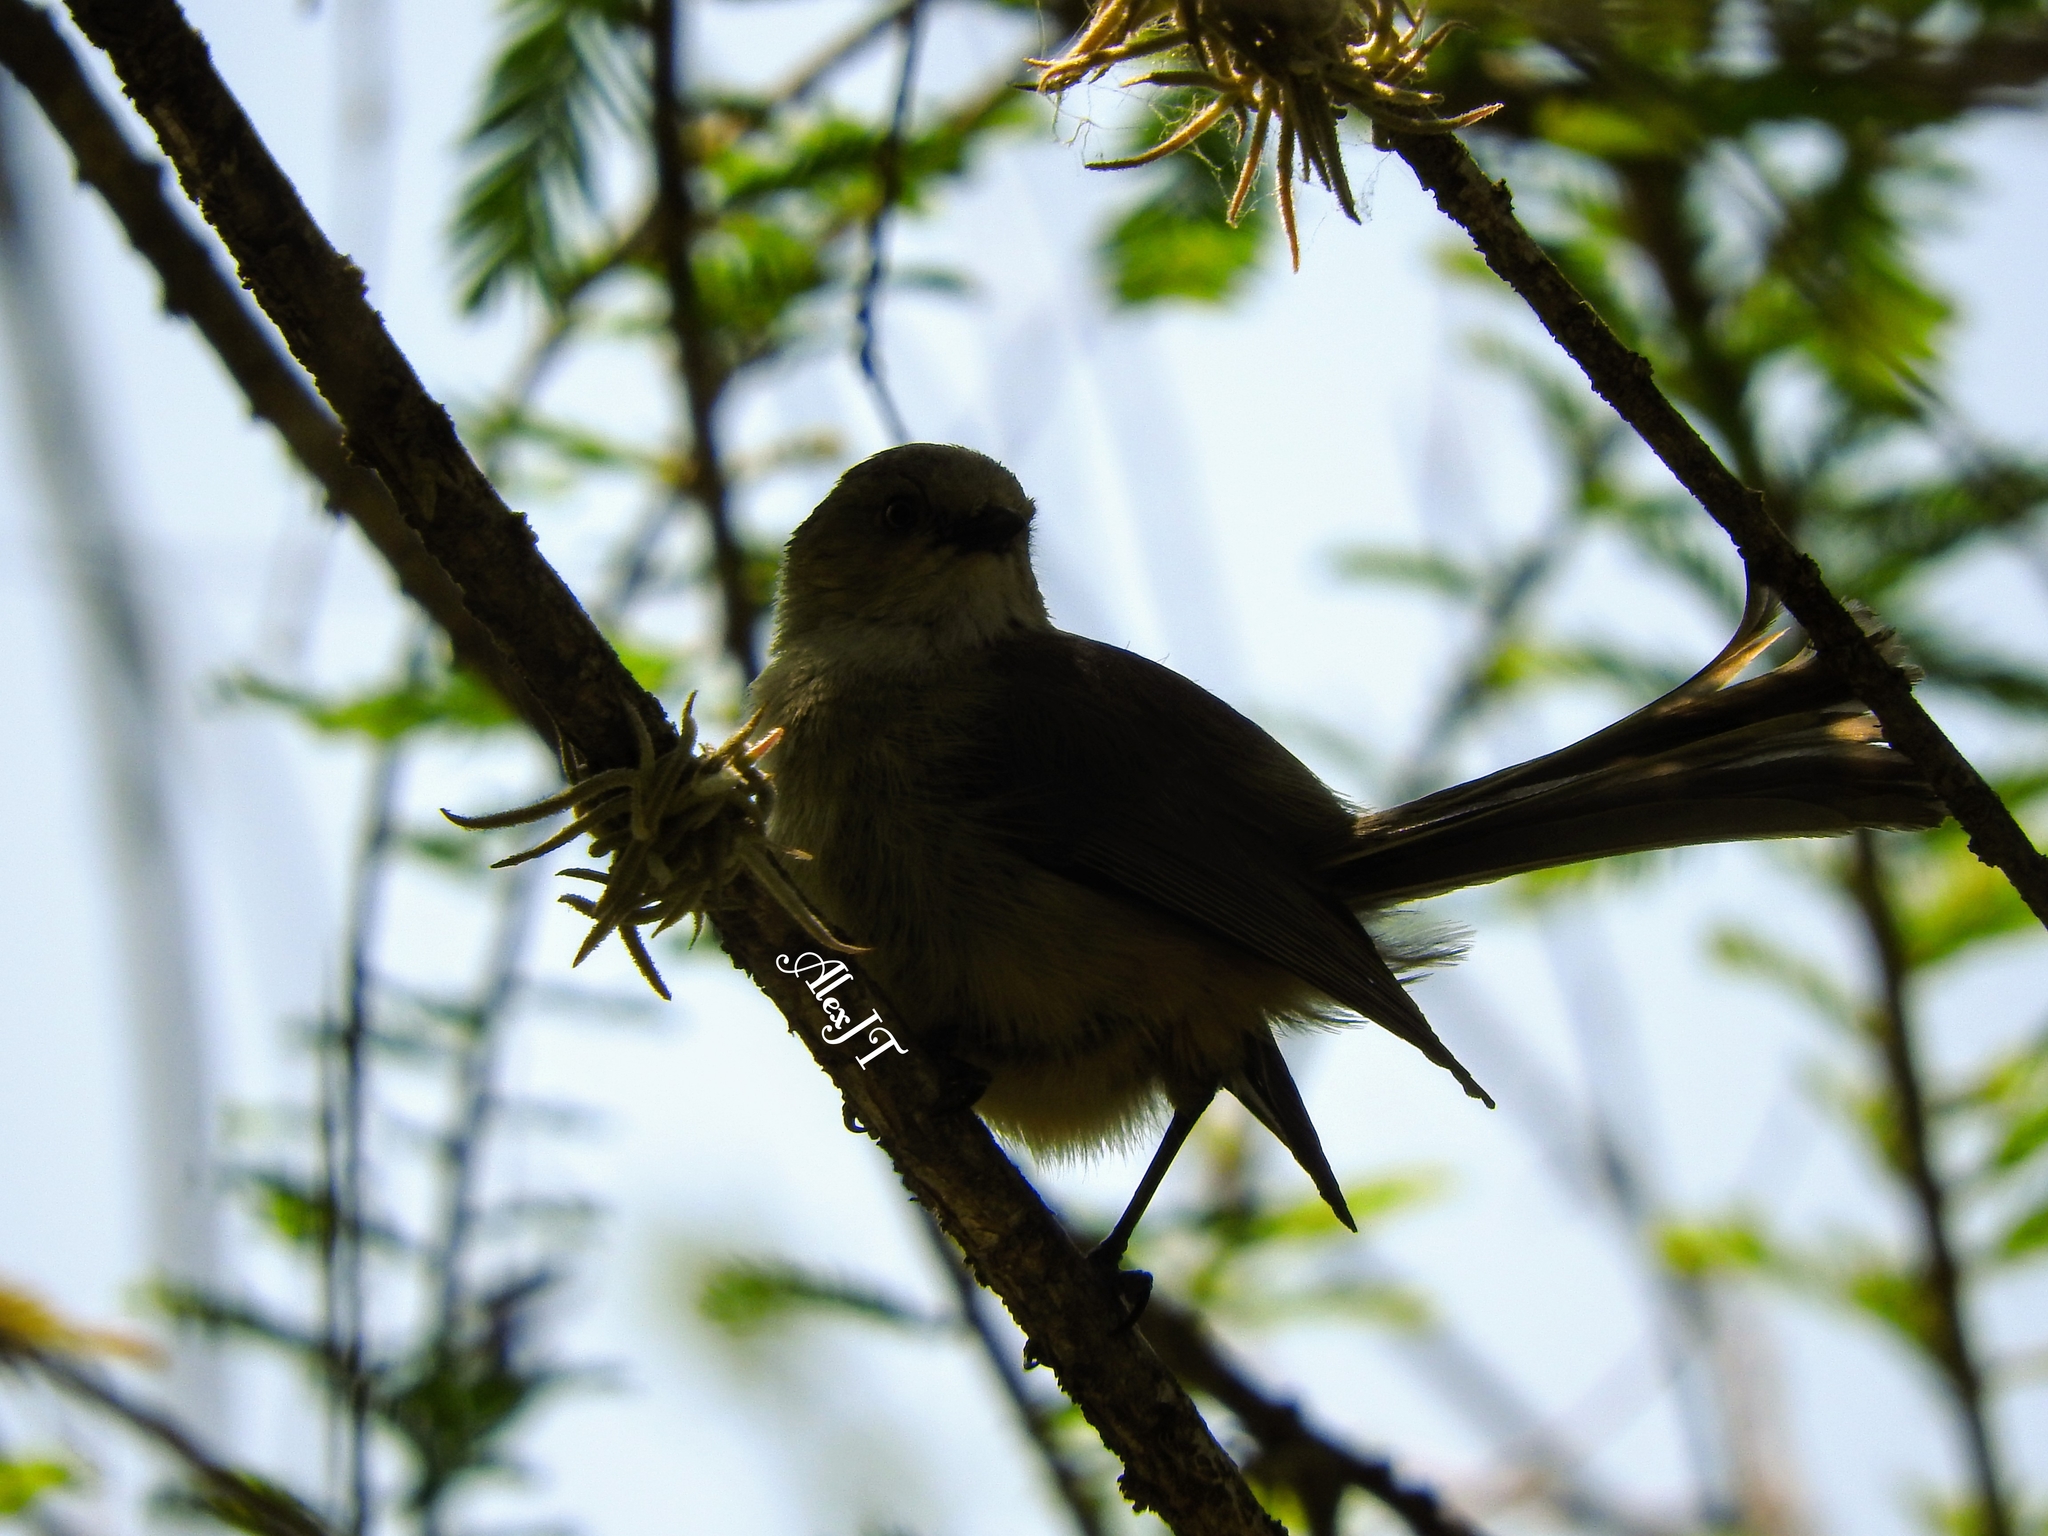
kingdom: Animalia
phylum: Chordata
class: Aves
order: Passeriformes
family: Aegithalidae
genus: Psaltriparus
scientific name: Psaltriparus minimus
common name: American bushtit
